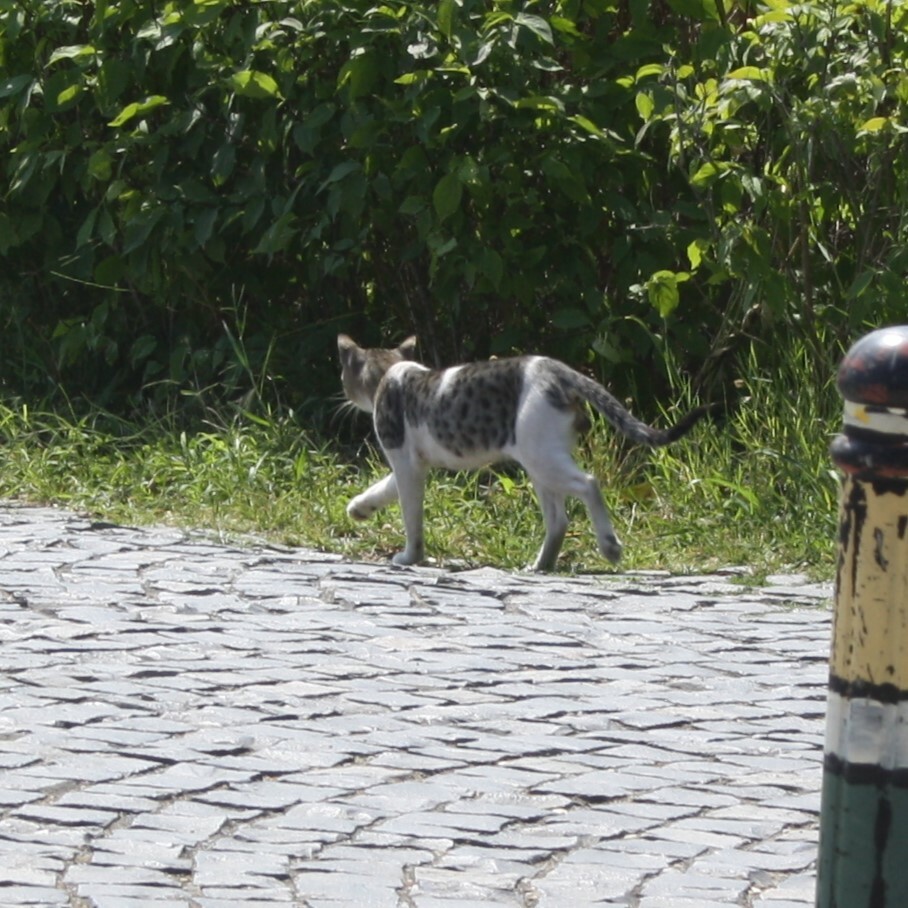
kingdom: Animalia
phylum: Chordata
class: Mammalia
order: Carnivora
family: Felidae
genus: Felis
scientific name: Felis catus
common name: Domestic cat
